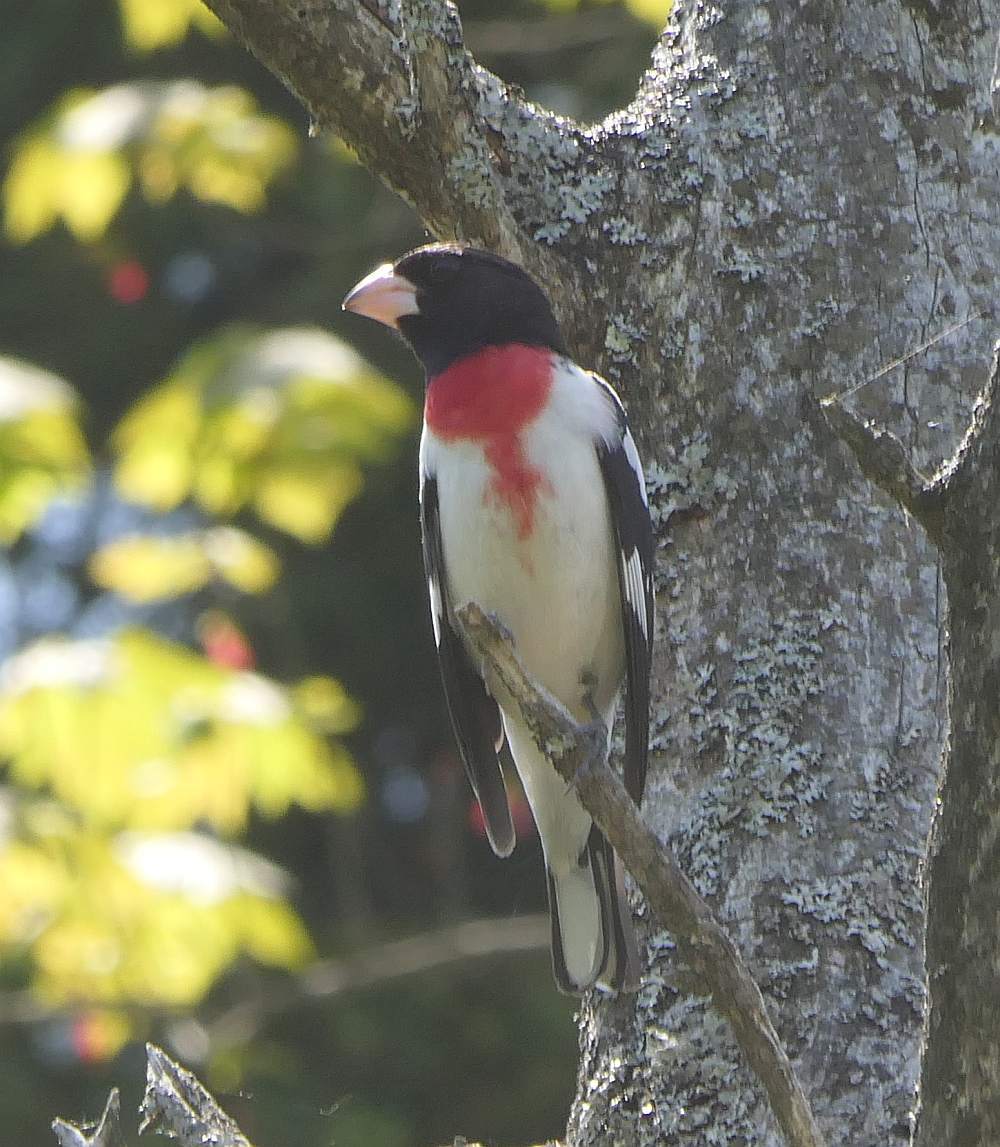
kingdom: Animalia
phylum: Chordata
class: Aves
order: Passeriformes
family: Cardinalidae
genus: Pheucticus
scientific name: Pheucticus ludovicianus
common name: Rose-breasted grosbeak
